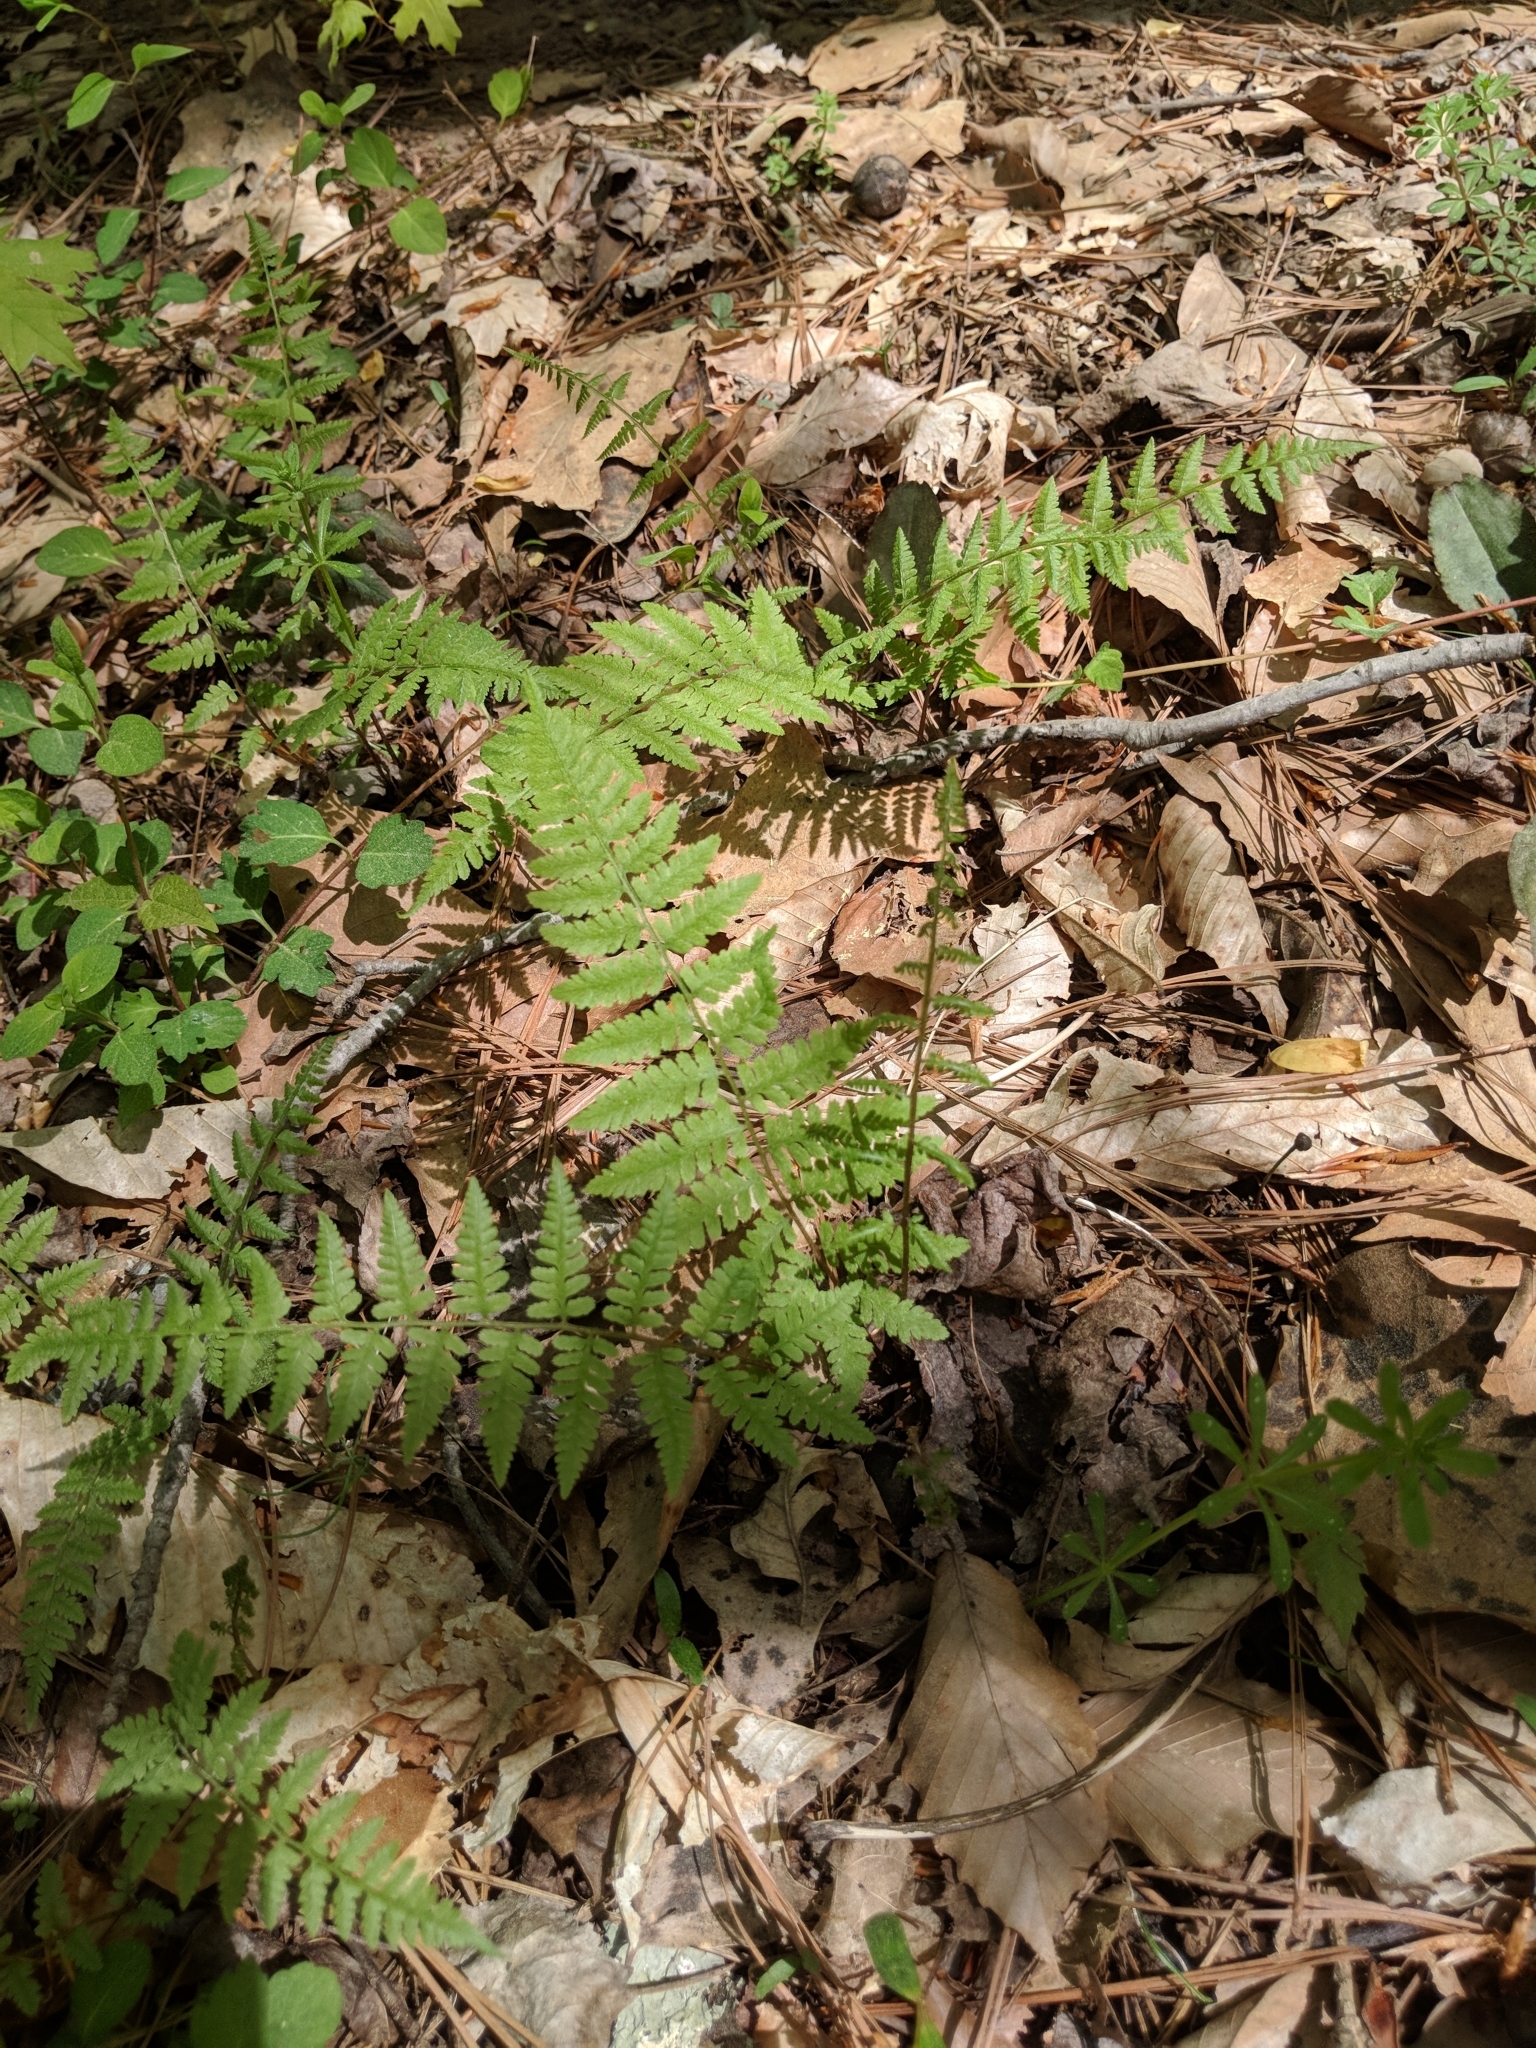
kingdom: Plantae
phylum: Tracheophyta
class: Polypodiopsida
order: Polypodiales
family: Athyriaceae
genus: Athyrium
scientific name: Athyrium asplenioides
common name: Southern lady fern
